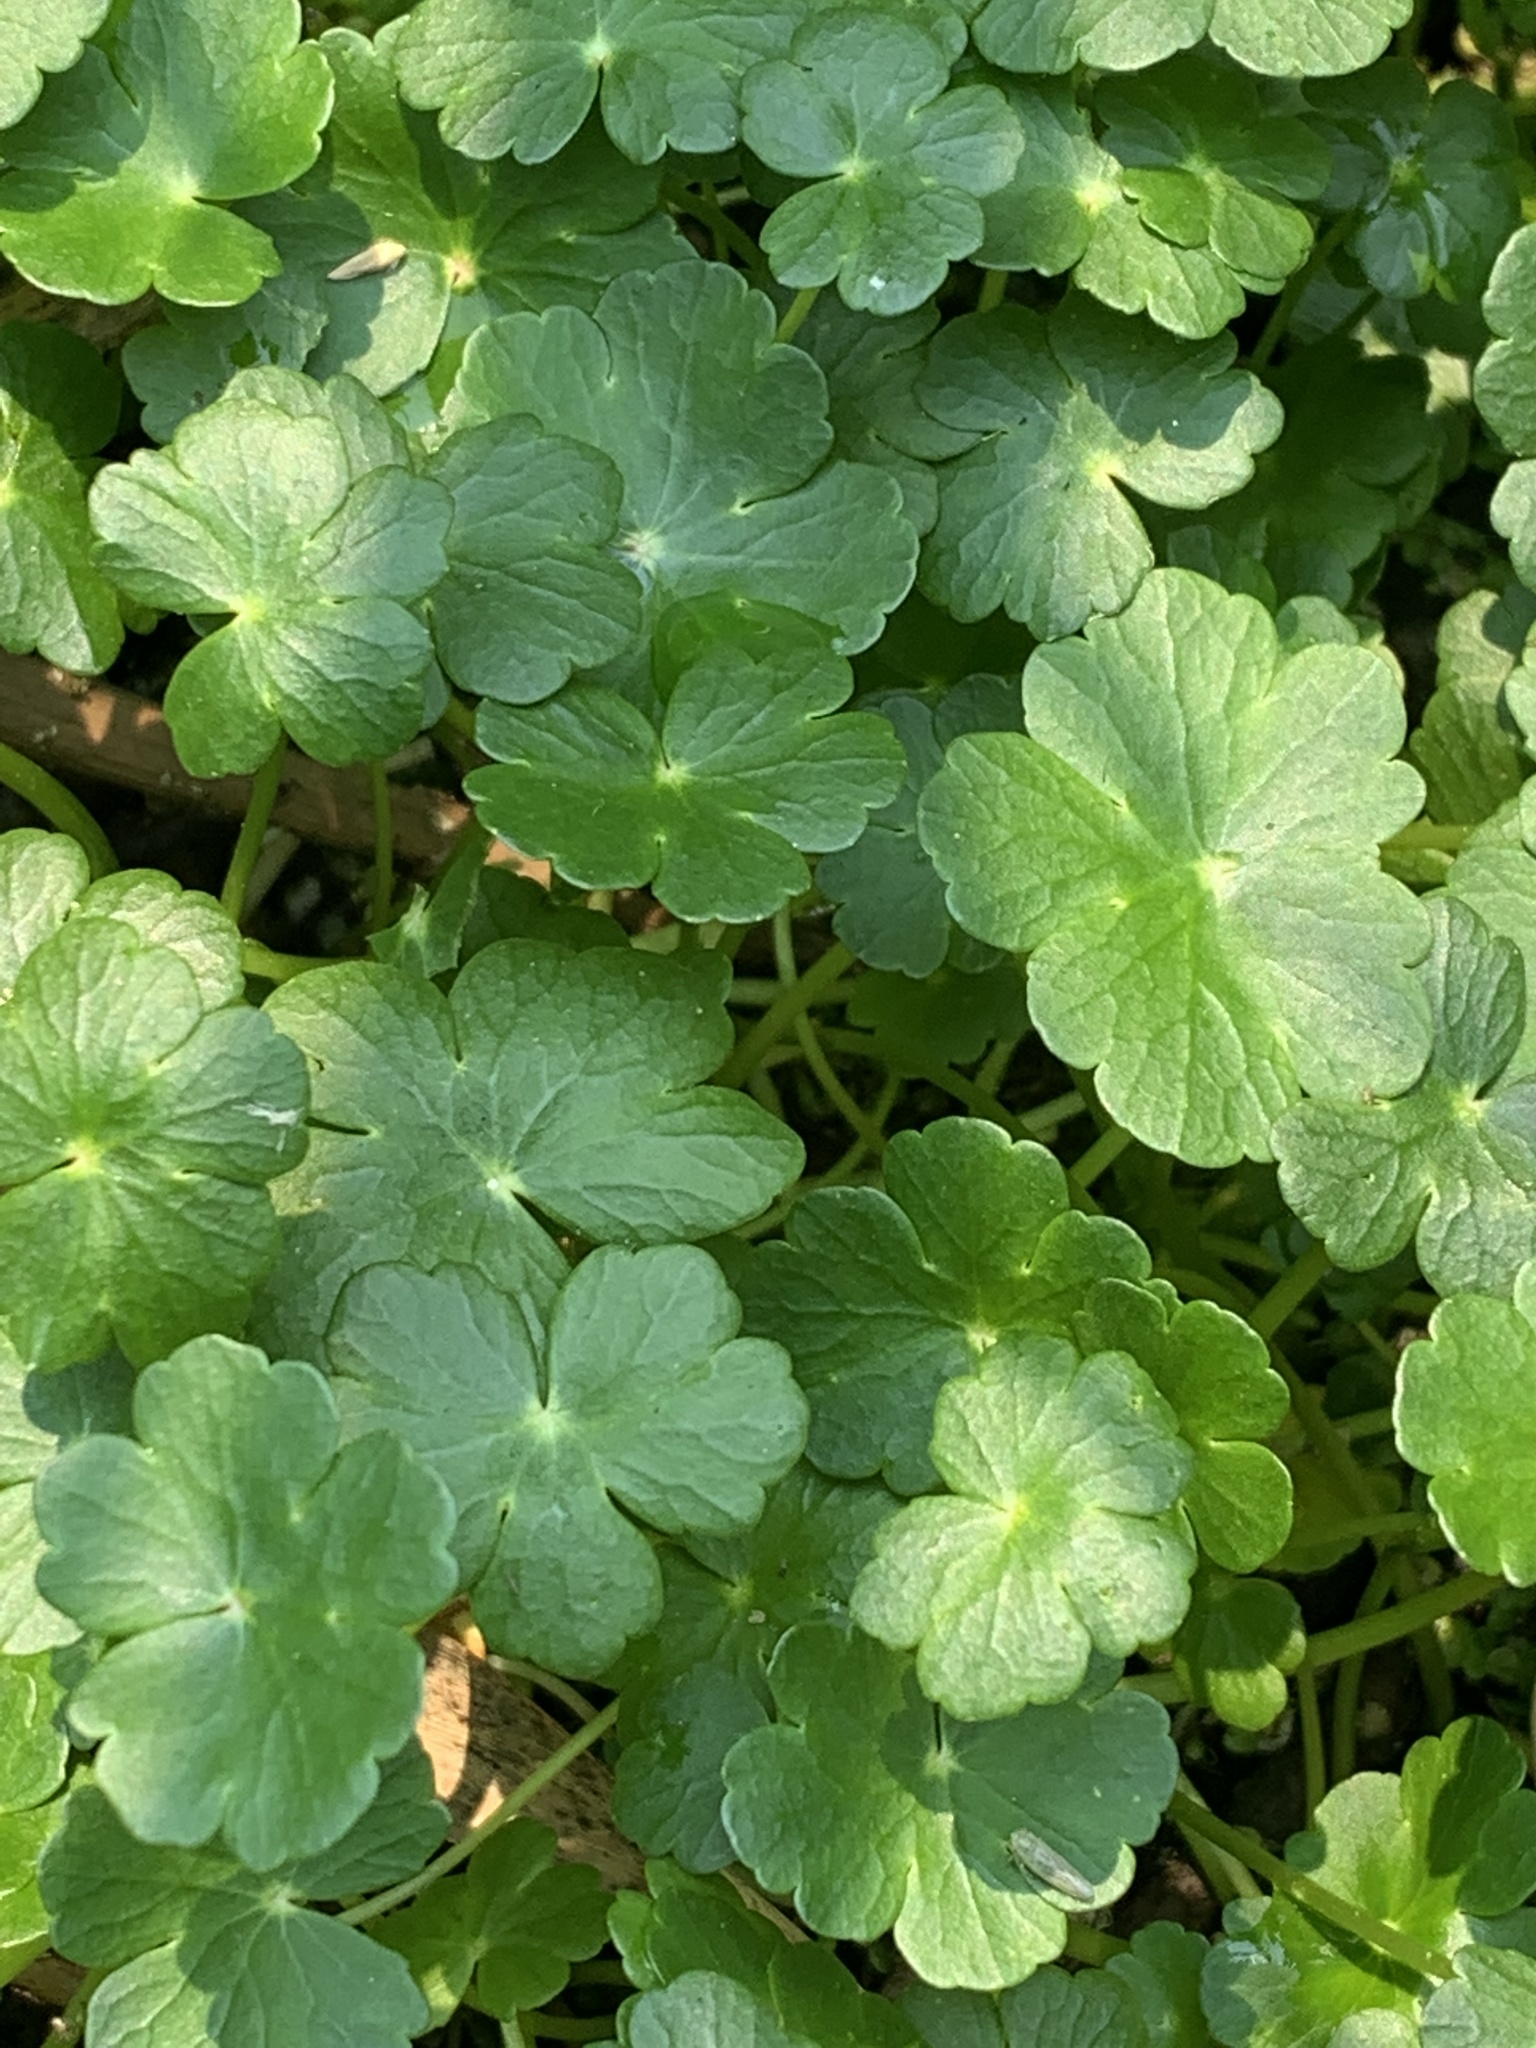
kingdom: Plantae
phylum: Tracheophyta
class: Magnoliopsida
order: Apiales
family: Araliaceae
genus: Hydrocotyle
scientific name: Hydrocotyle ranunculoides
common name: Floating pennywort
